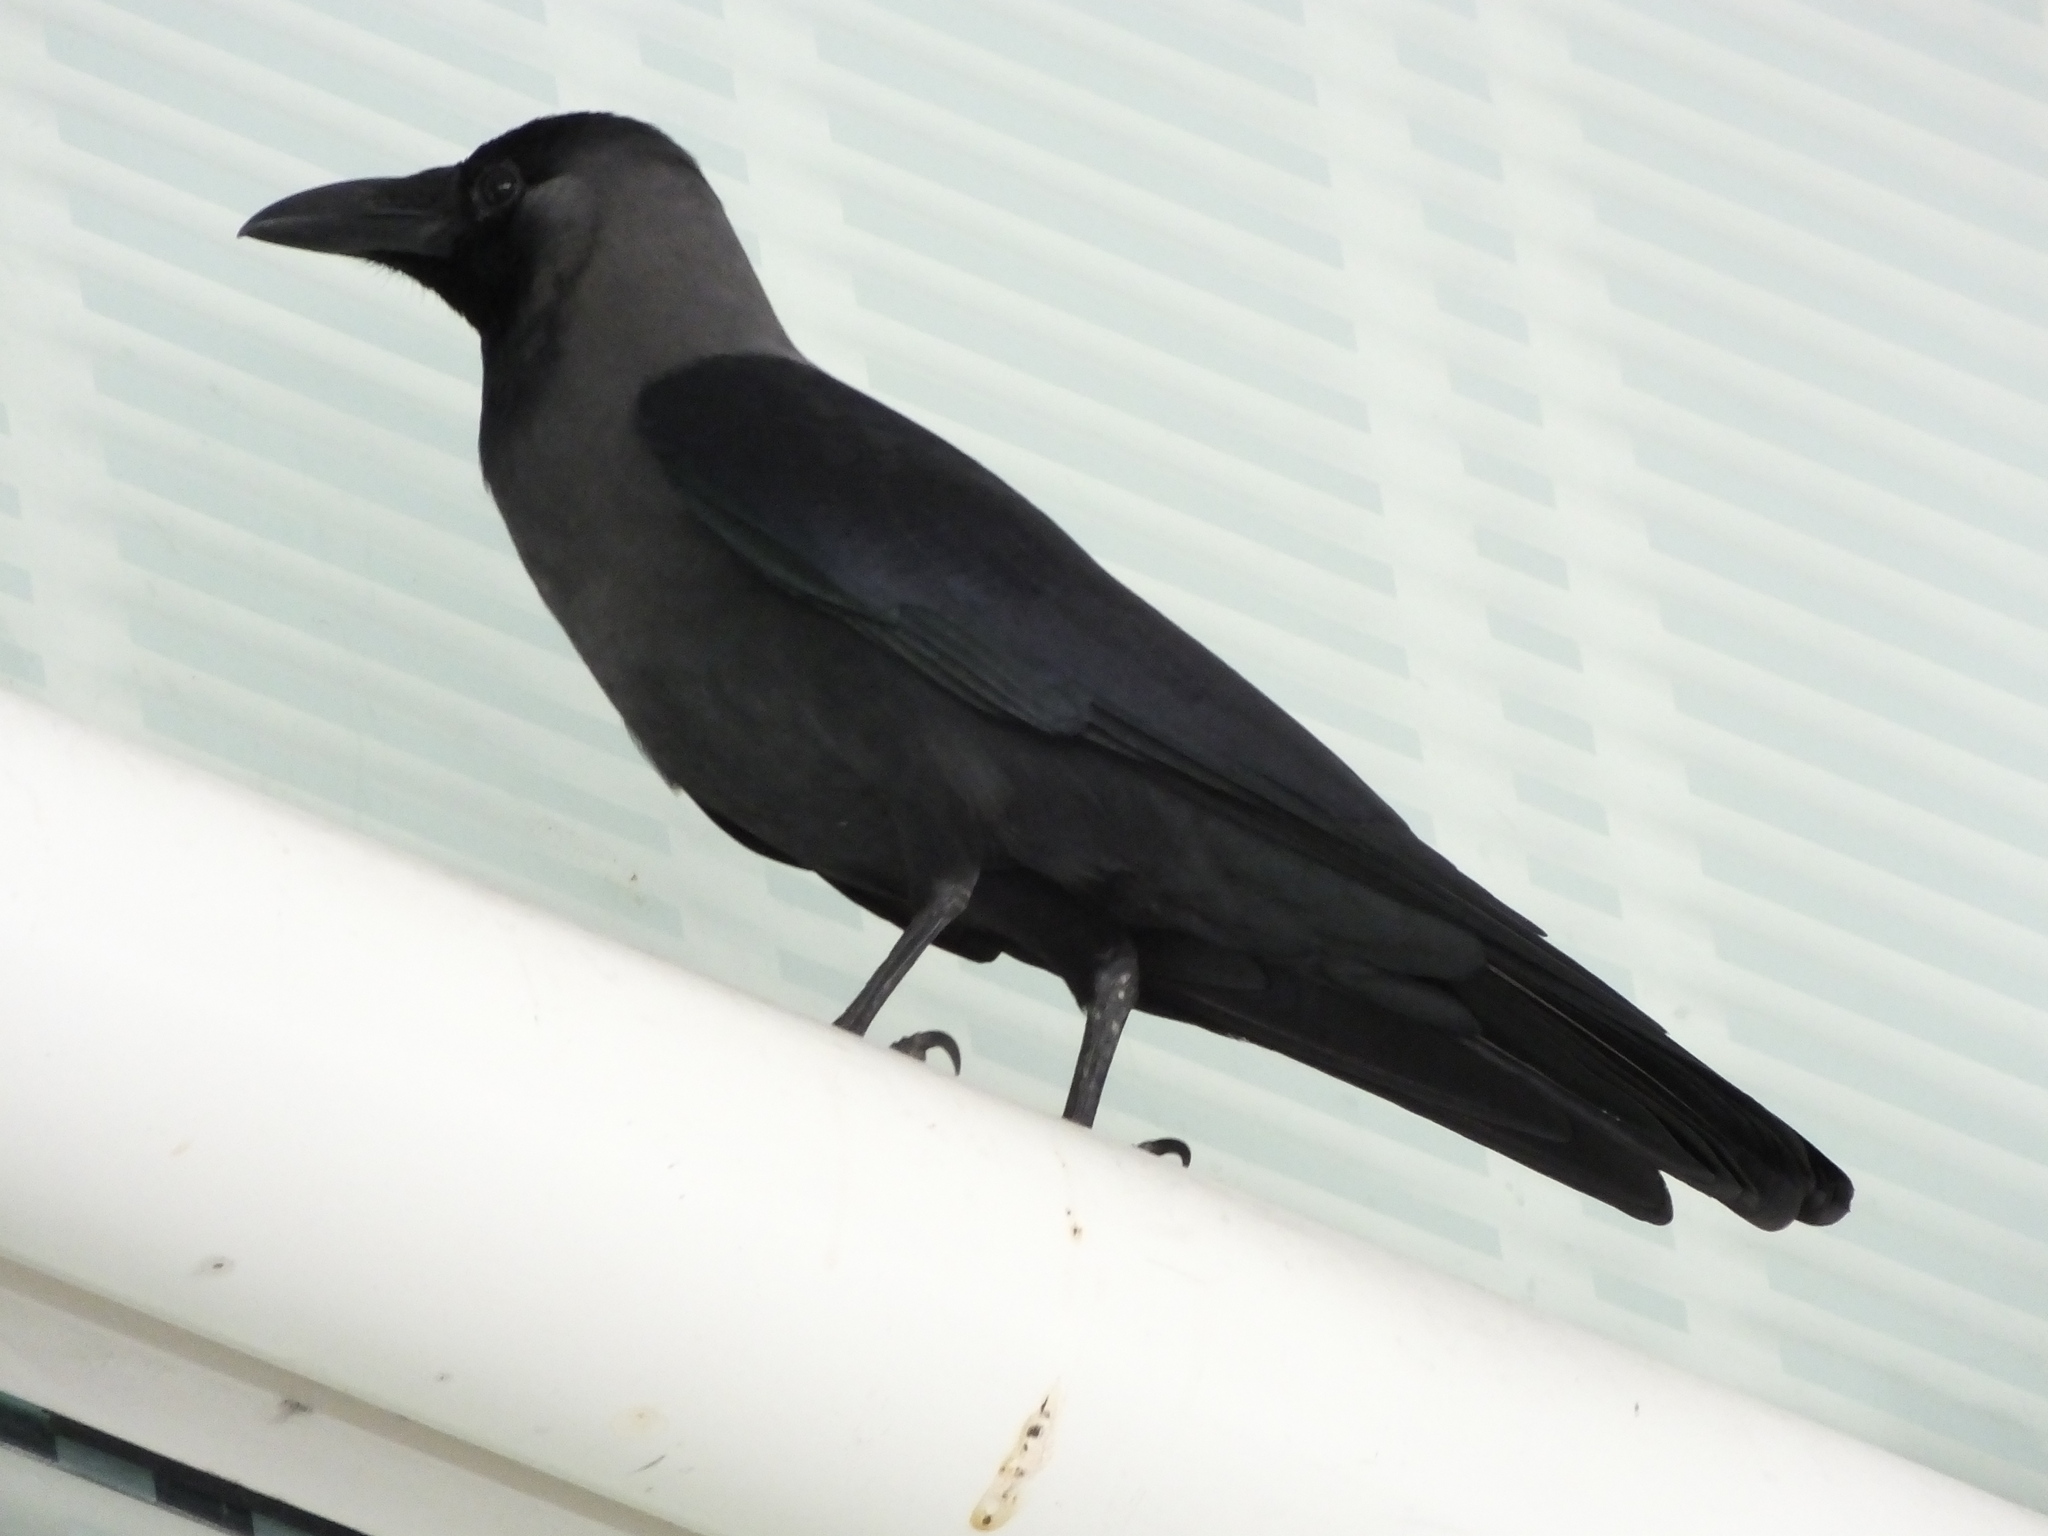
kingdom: Animalia
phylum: Chordata
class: Aves
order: Passeriformes
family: Corvidae
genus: Corvus
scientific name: Corvus splendens
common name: House crow
